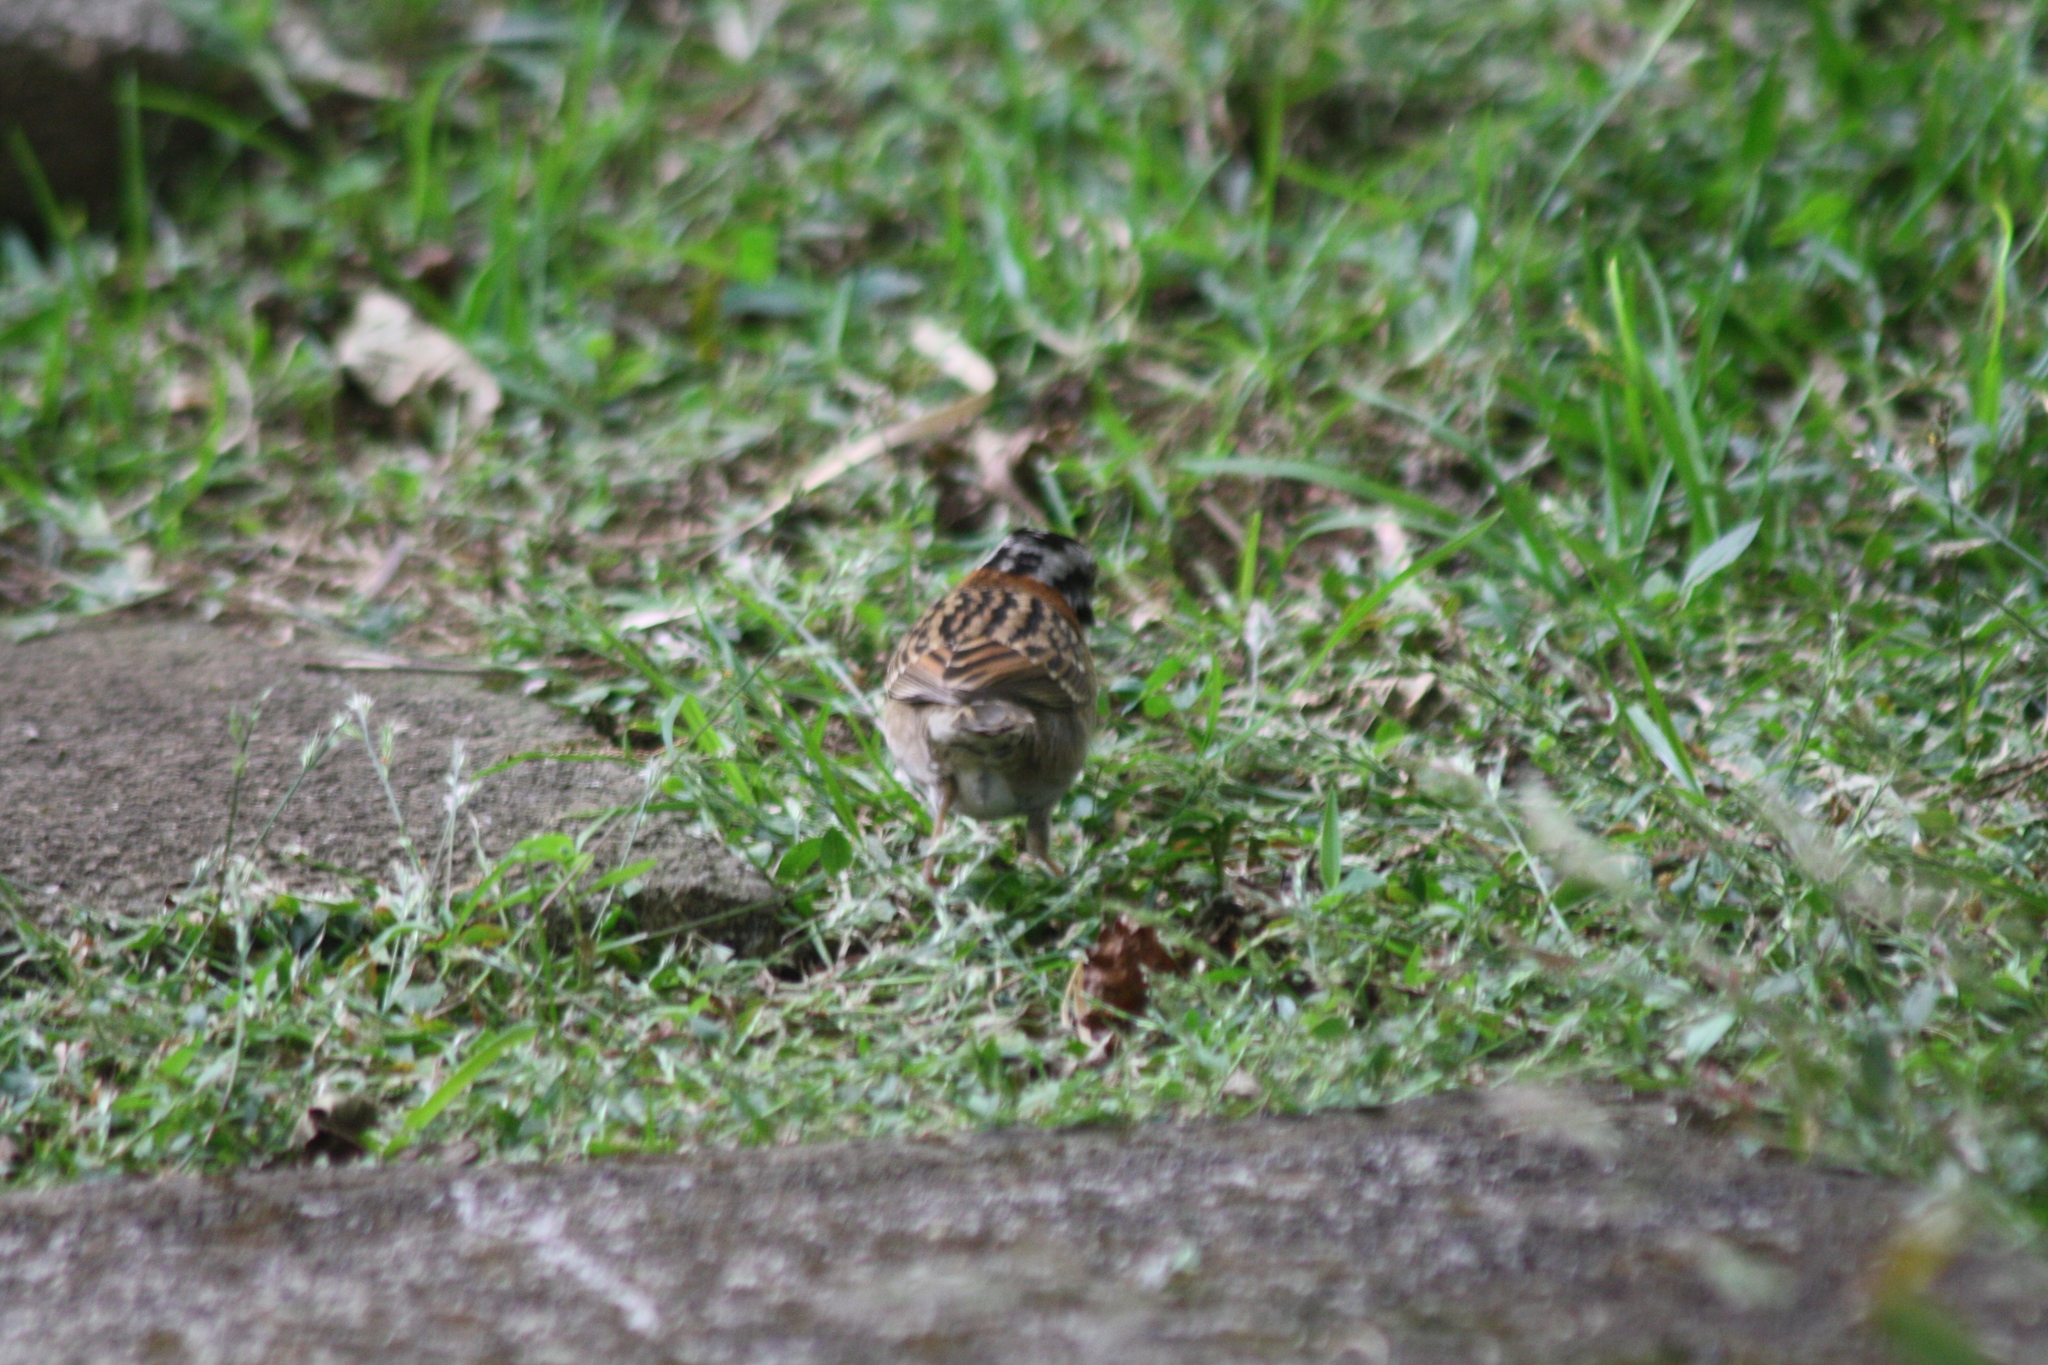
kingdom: Animalia
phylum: Chordata
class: Aves
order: Passeriformes
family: Passerellidae
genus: Zonotrichia
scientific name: Zonotrichia capensis
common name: Rufous-collared sparrow
